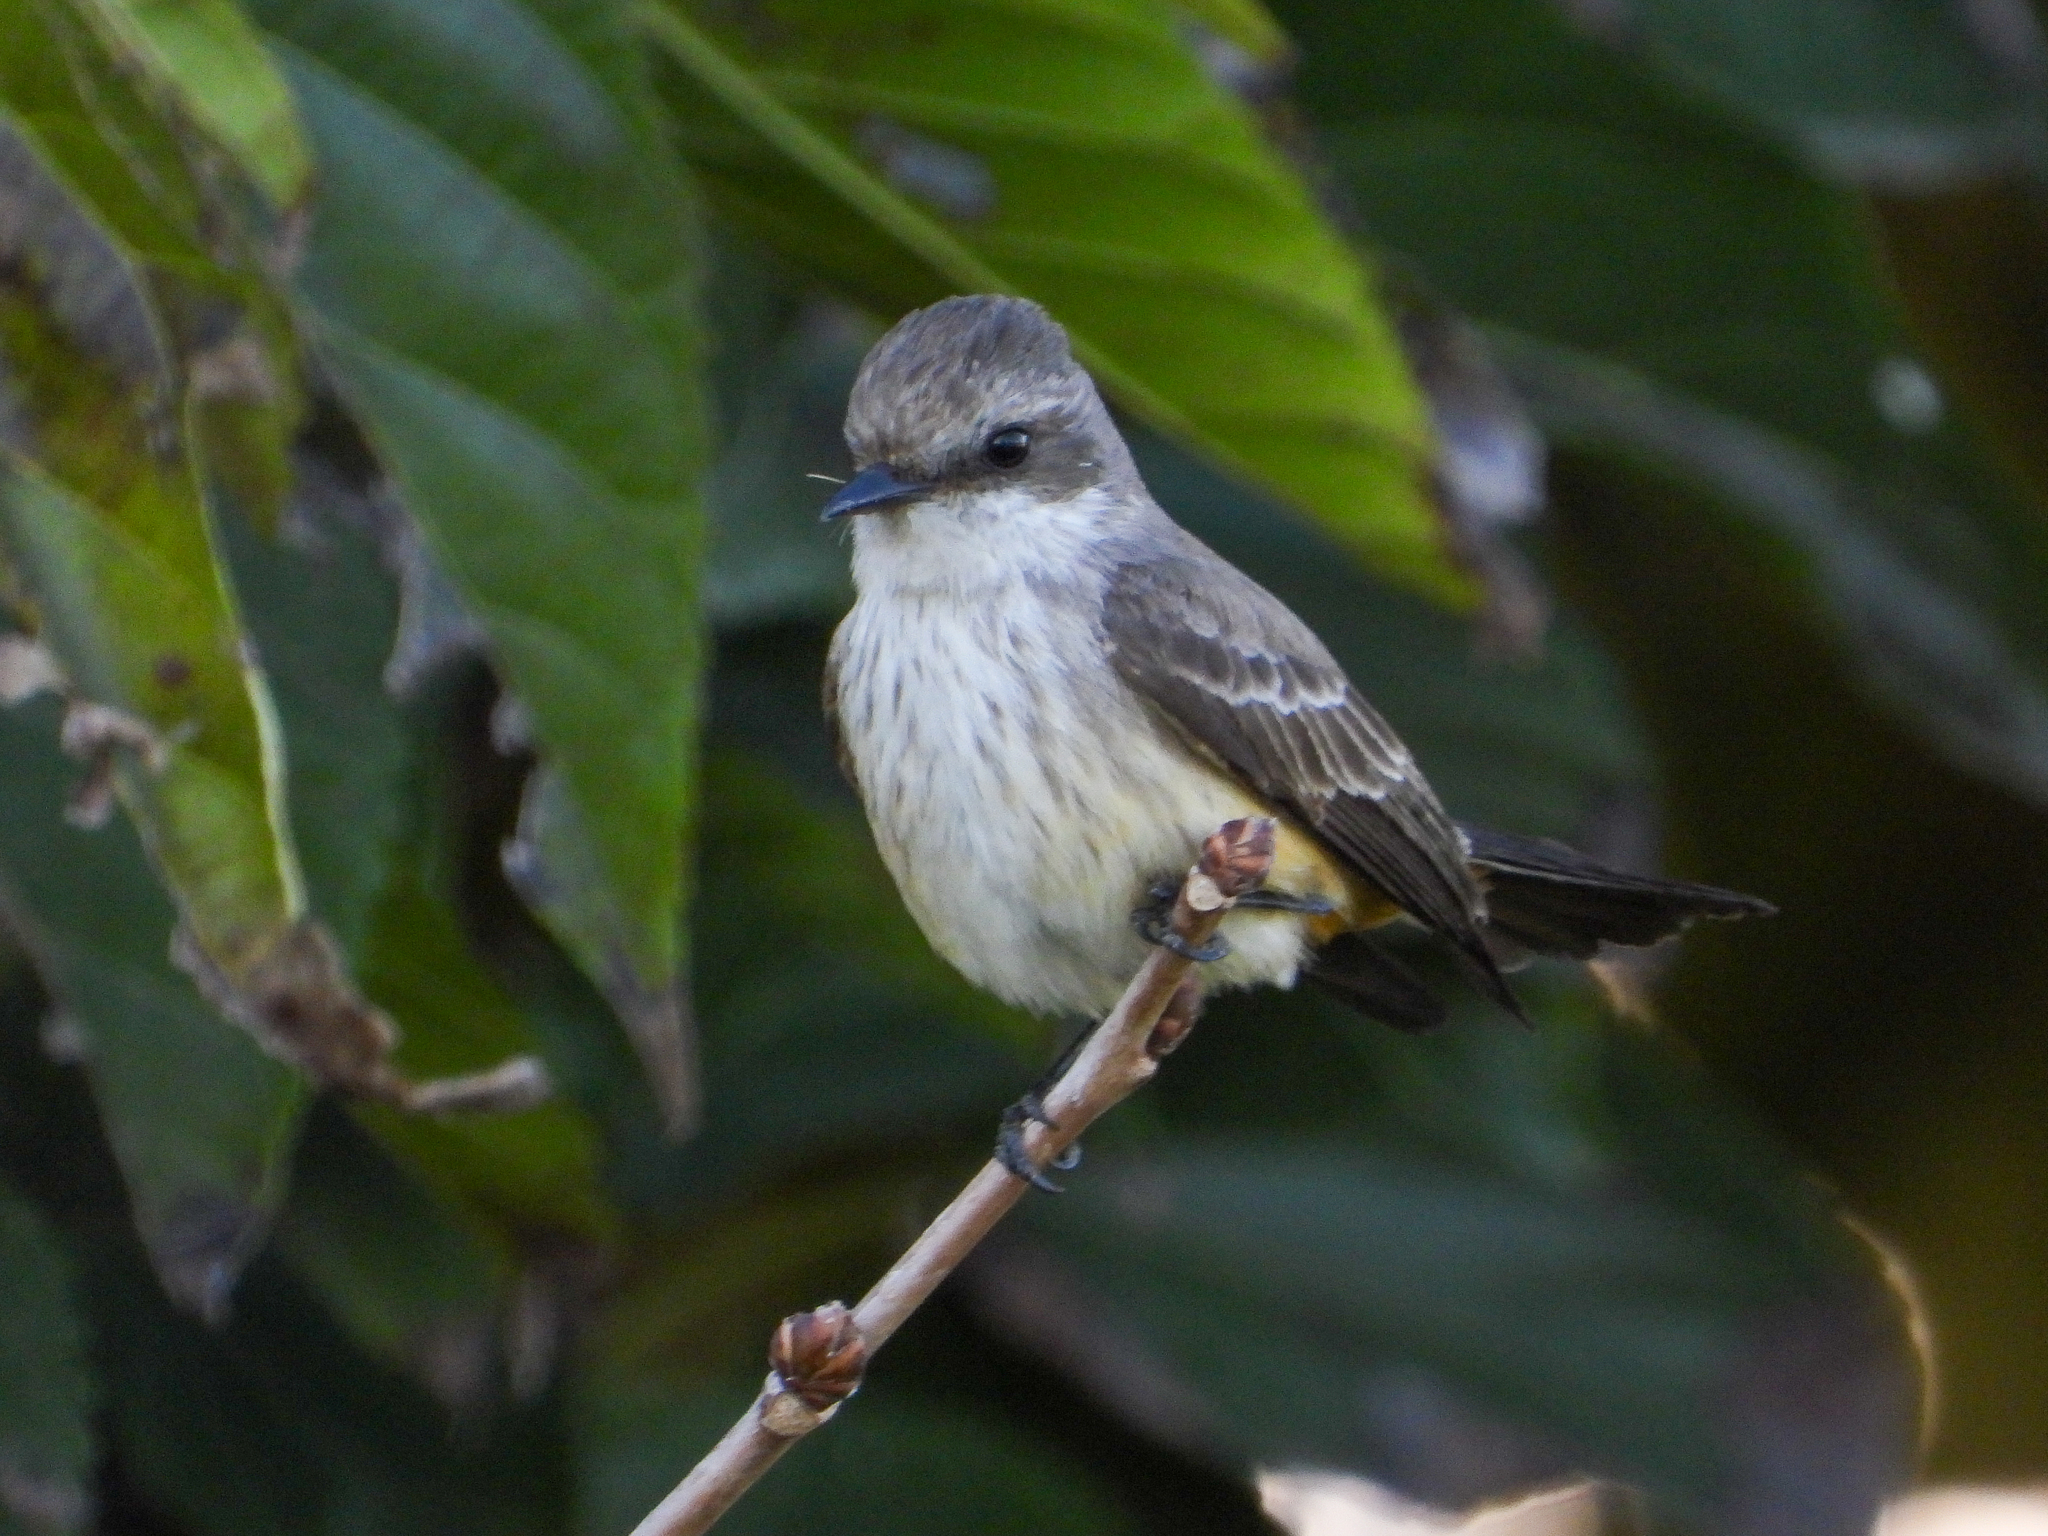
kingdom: Animalia
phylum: Chordata
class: Aves
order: Passeriformes
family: Tyrannidae
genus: Pyrocephalus
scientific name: Pyrocephalus rubinus
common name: Vermilion flycatcher
